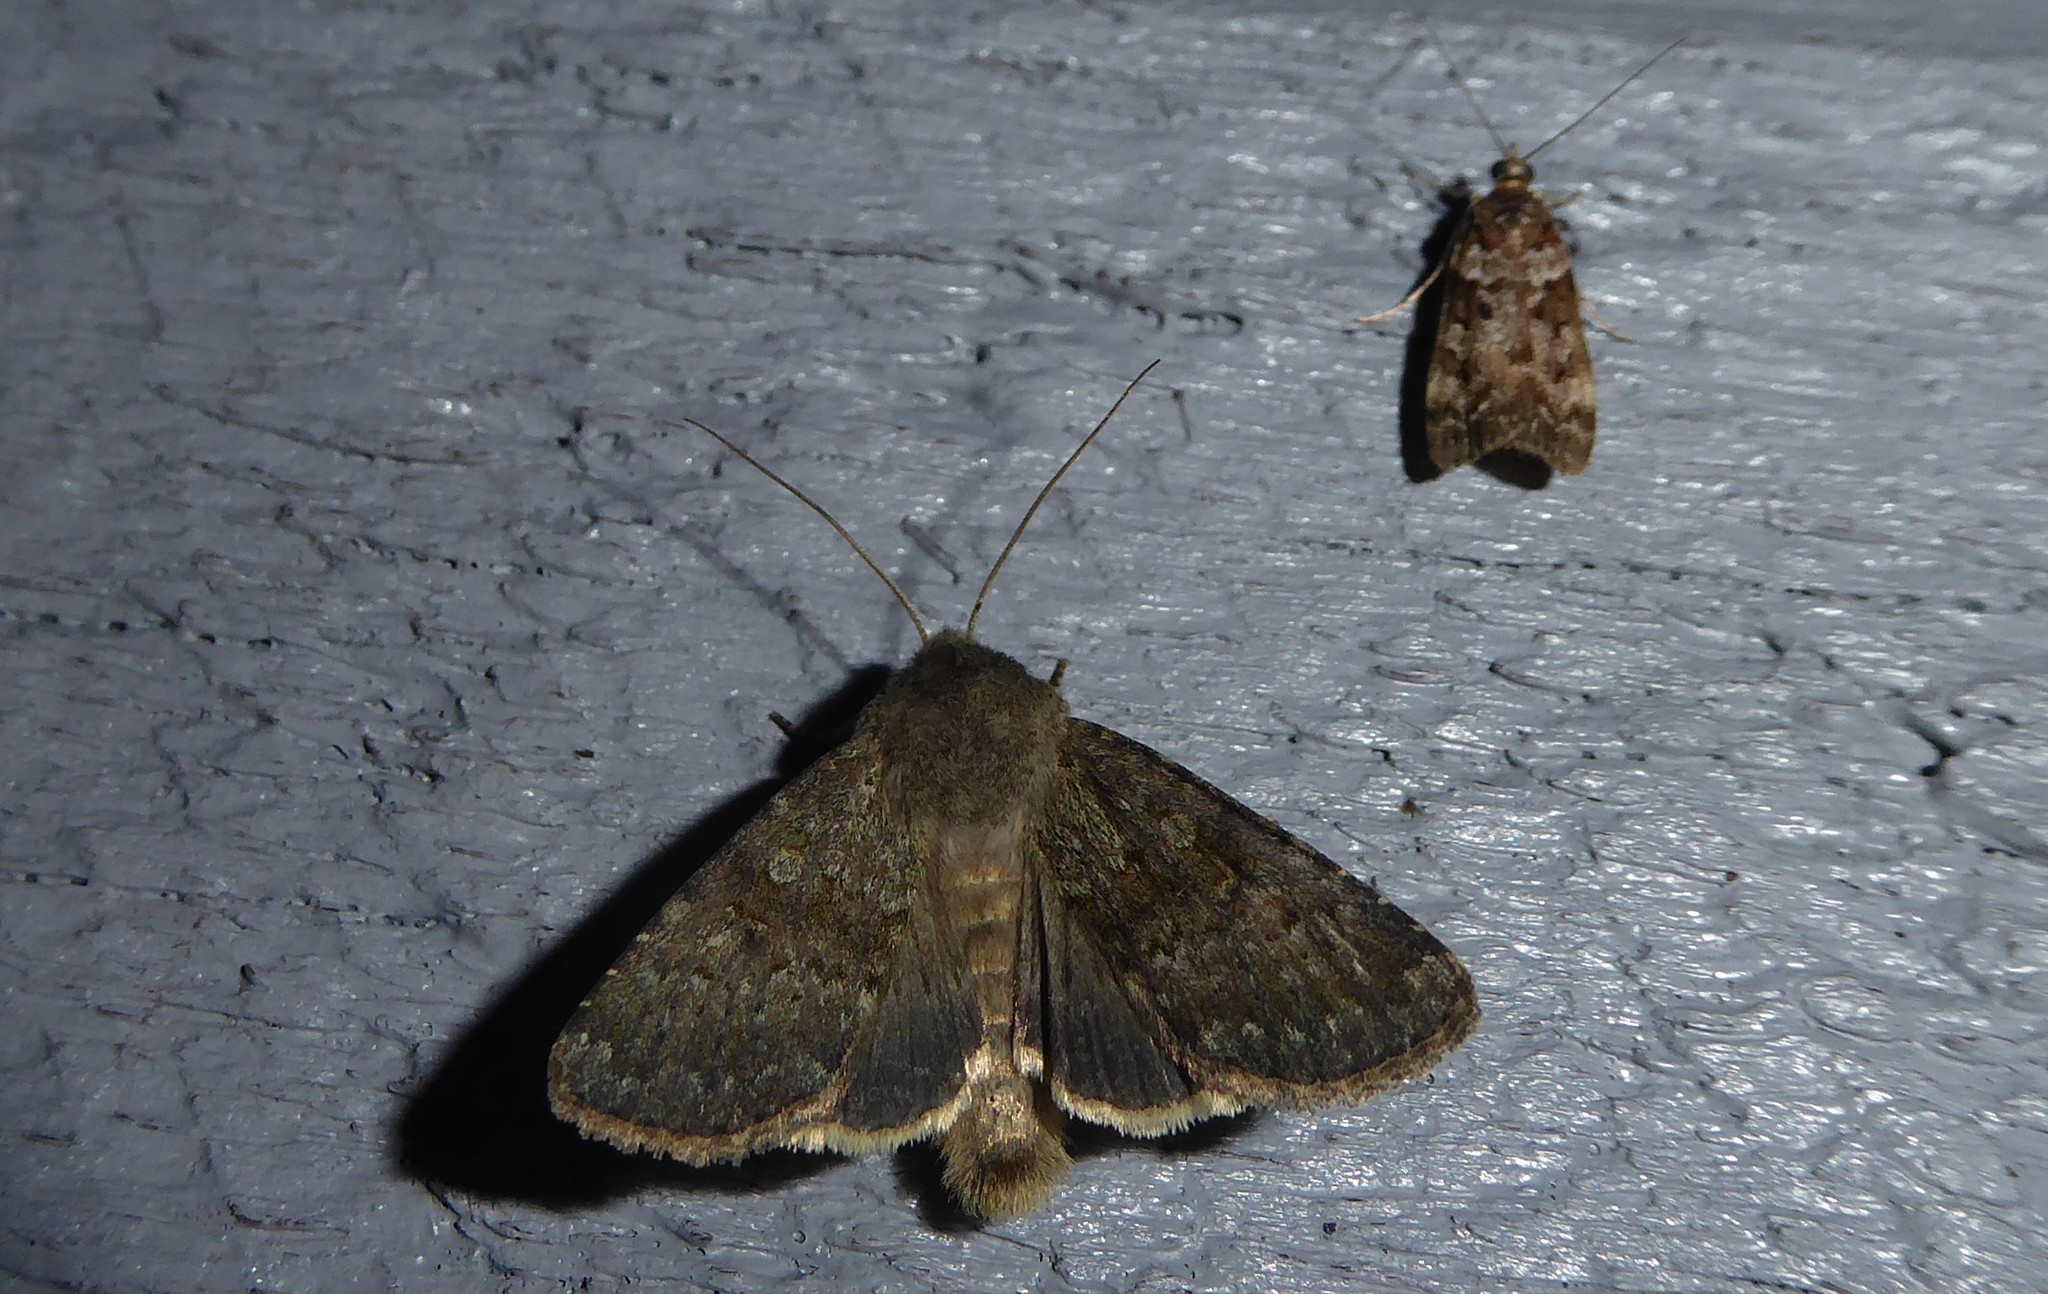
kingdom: Animalia
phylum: Arthropoda
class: Insecta
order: Lepidoptera
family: Noctuidae
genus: Ichneutica
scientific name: Ichneutica moderata
